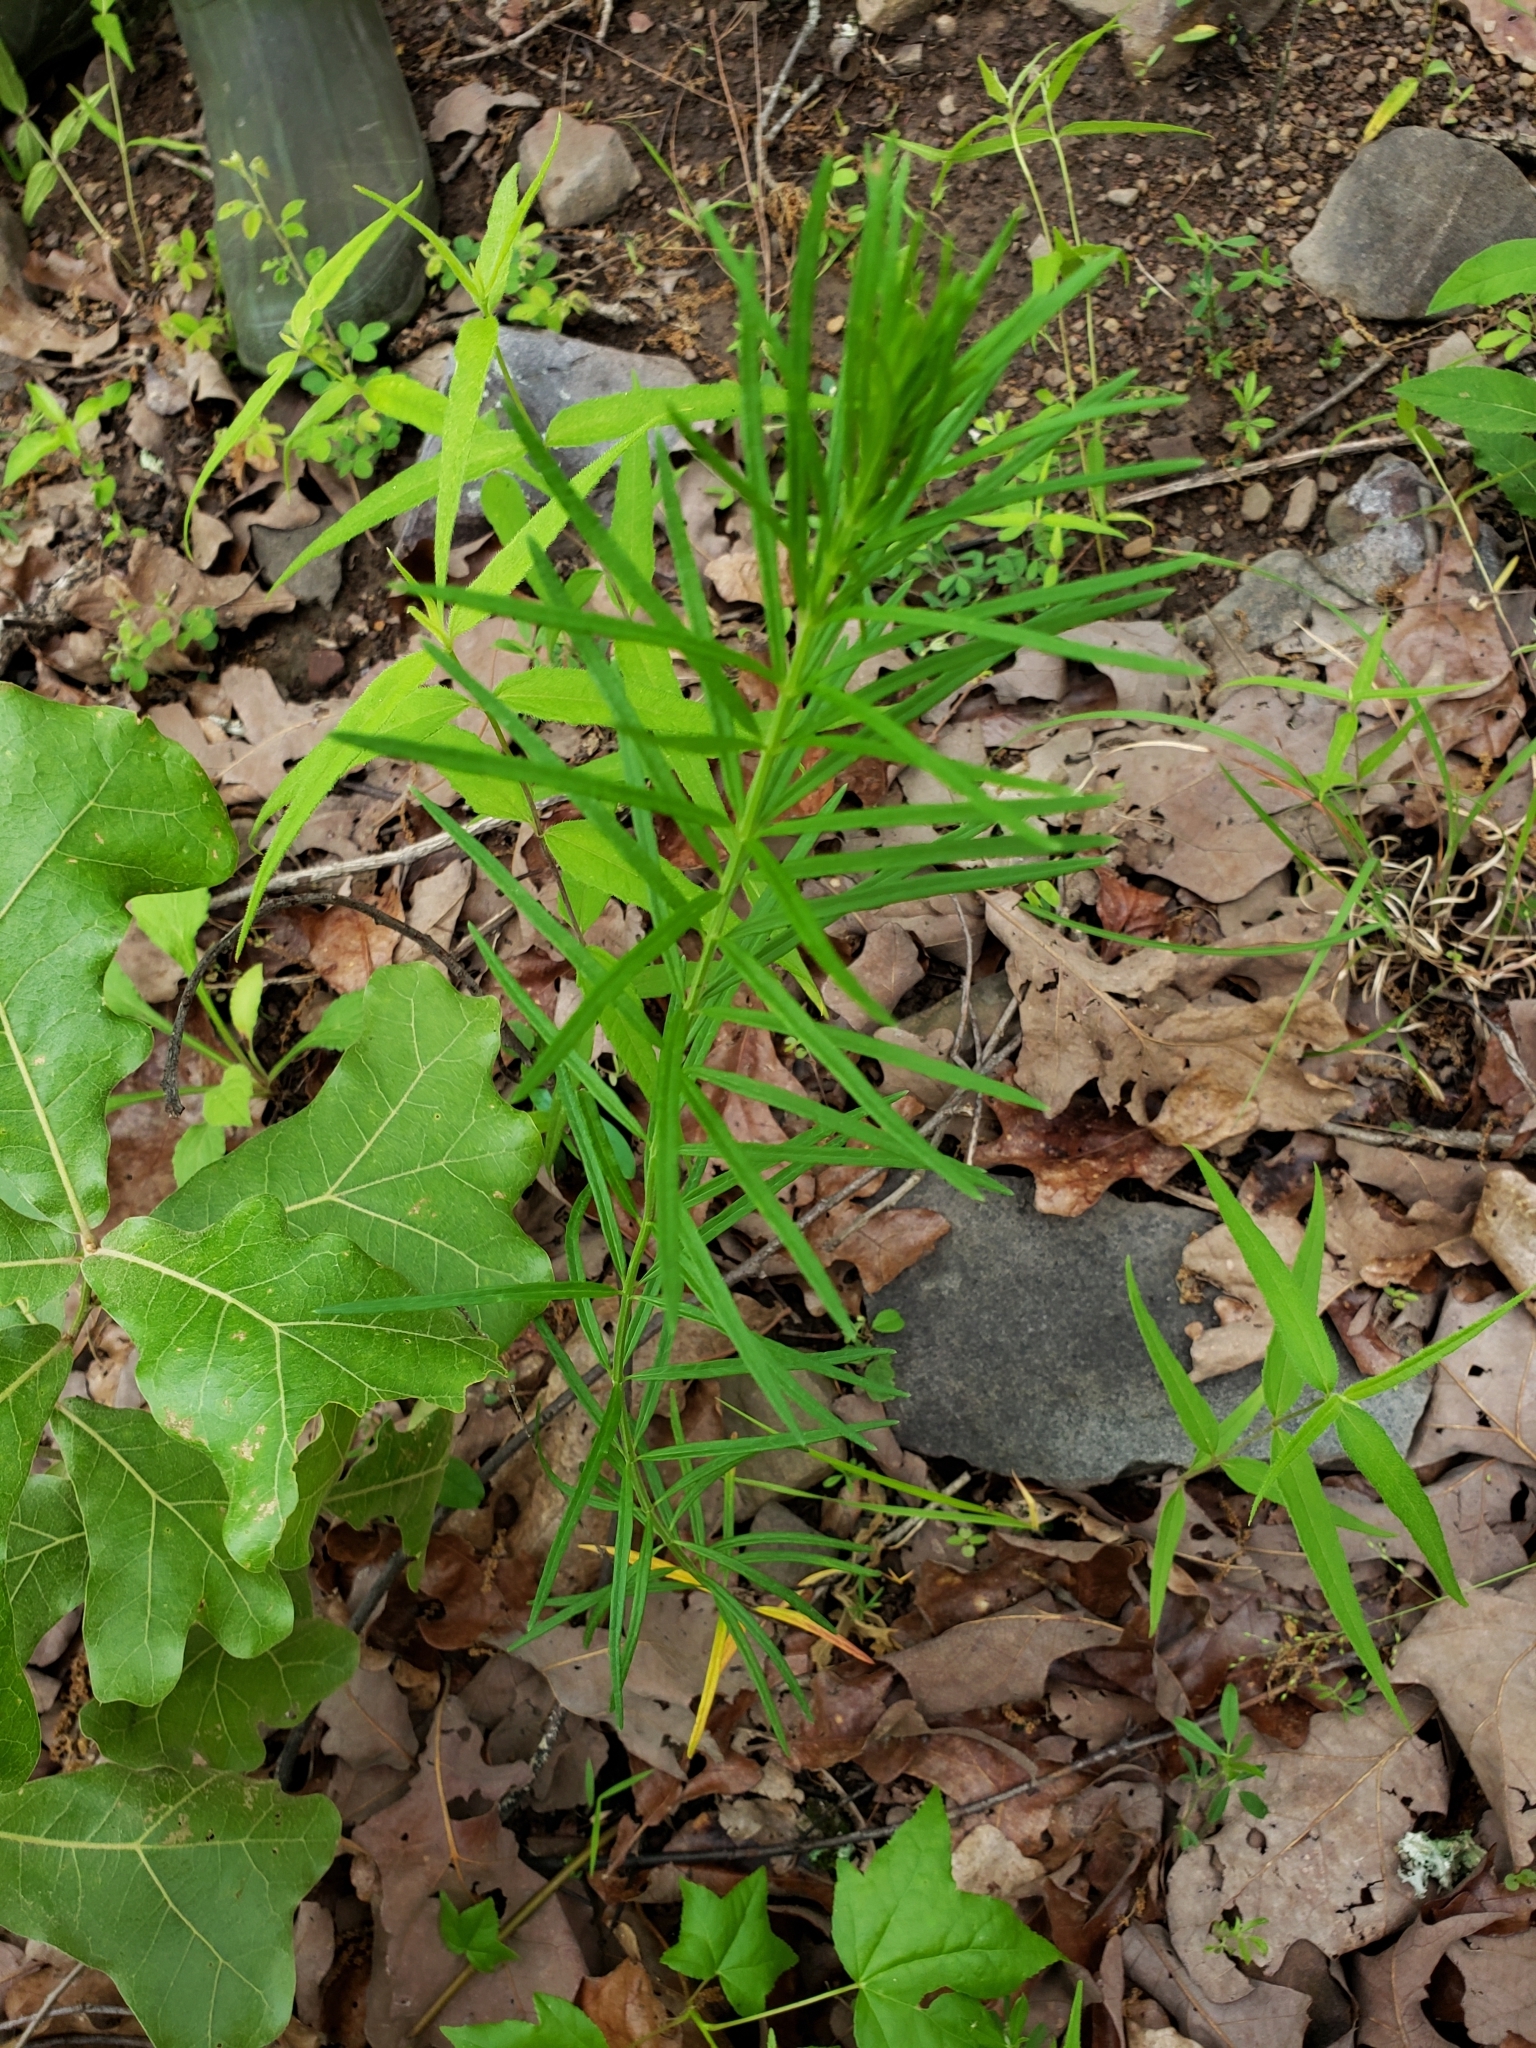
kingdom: Plantae
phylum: Tracheophyta
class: Magnoliopsida
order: Gentianales
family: Apocynaceae
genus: Asclepias
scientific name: Asclepias verticillata
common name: Eastern whorled milkweed
